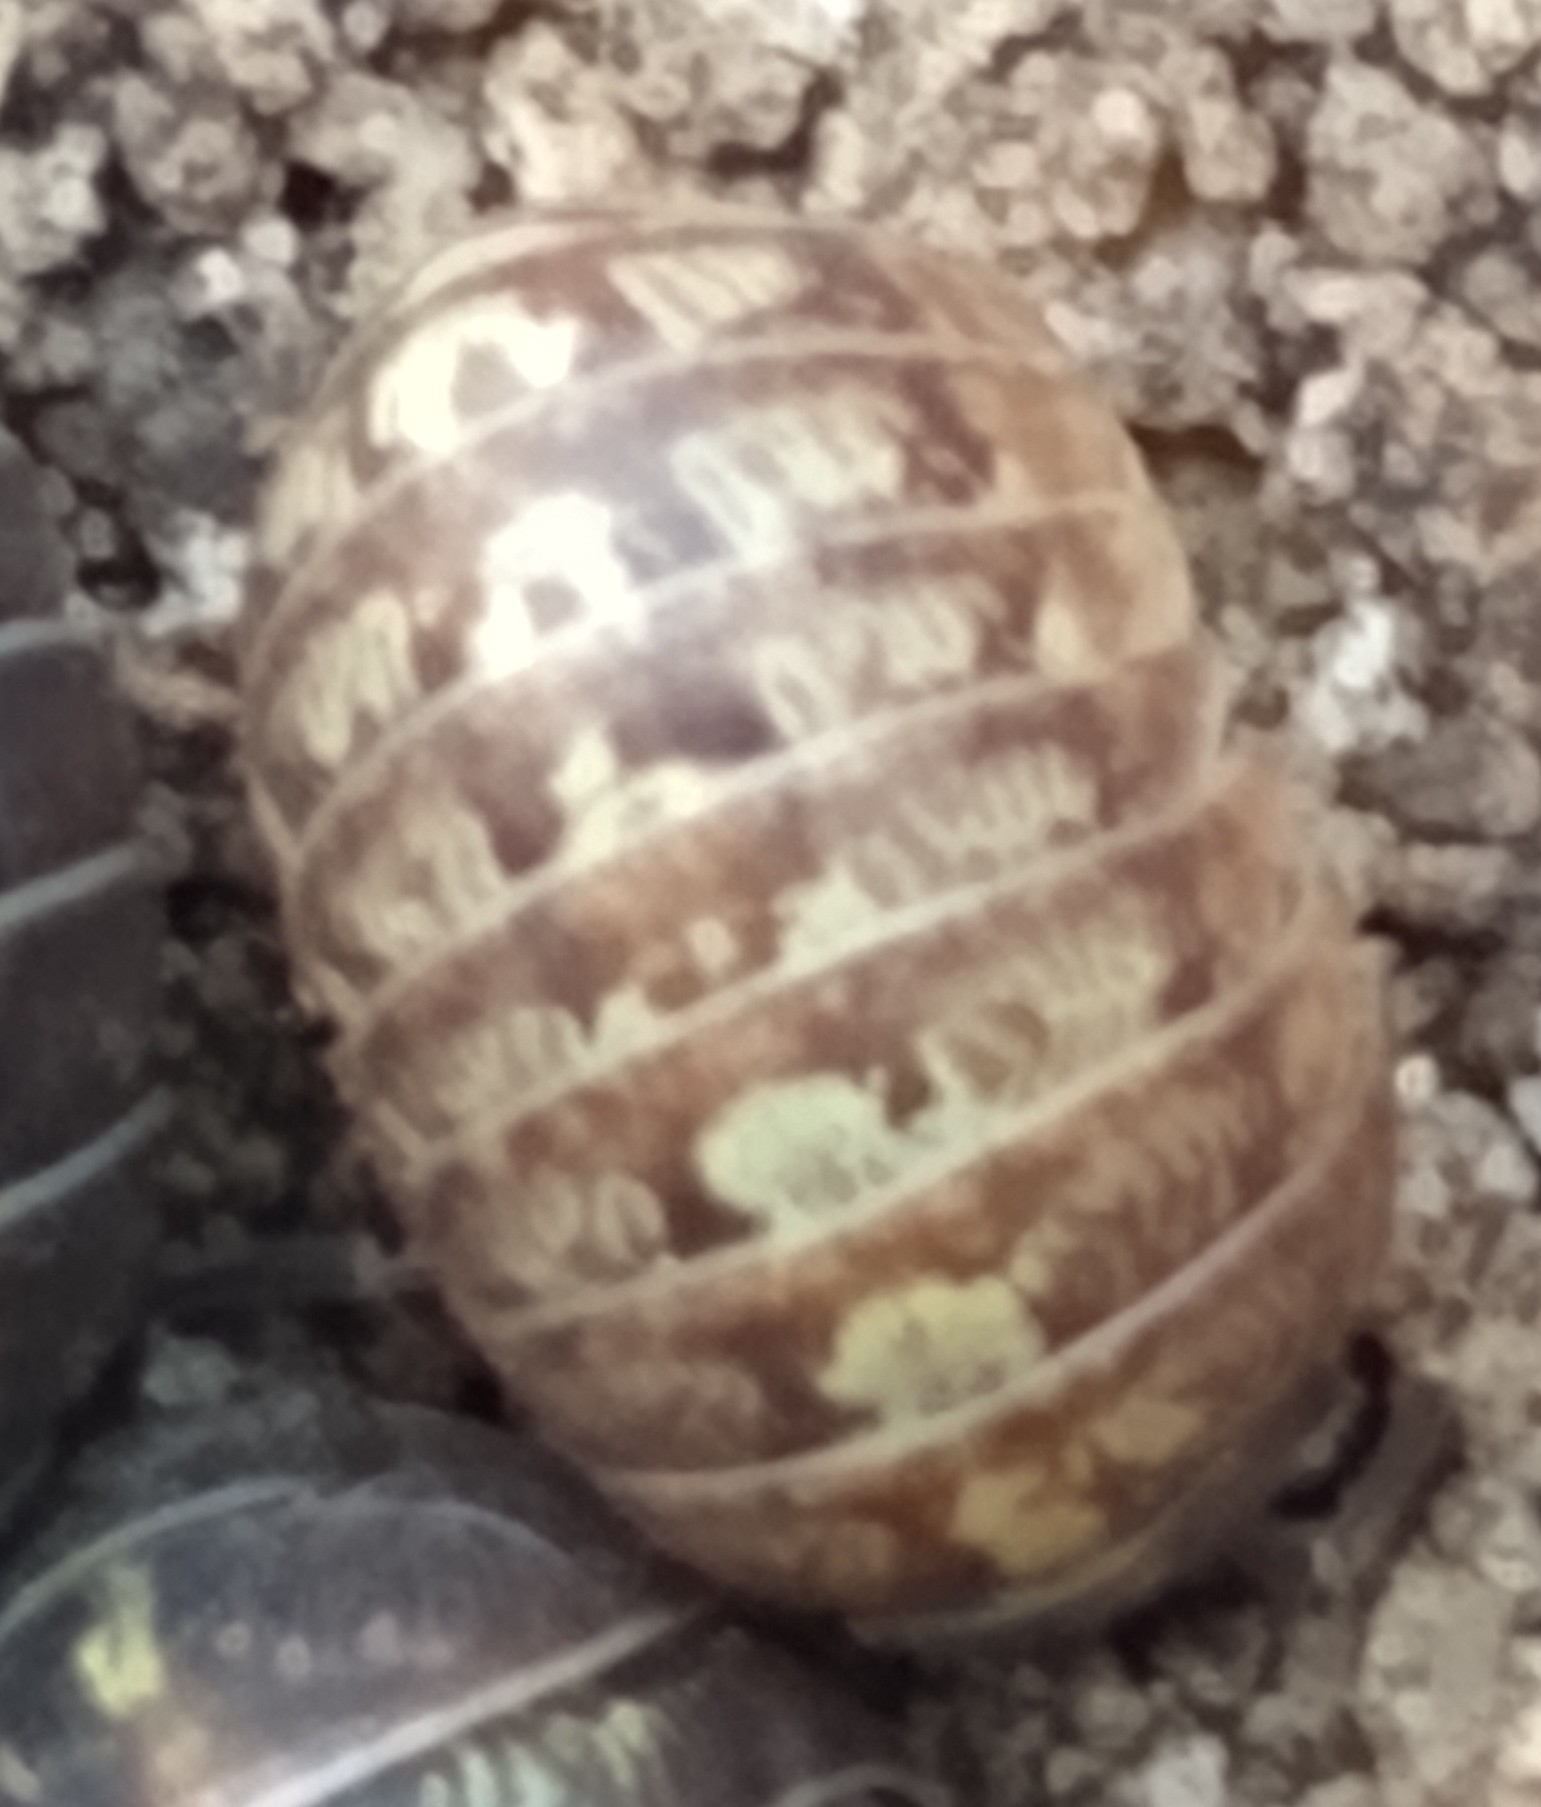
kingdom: Animalia
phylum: Arthropoda
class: Malacostraca
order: Isopoda
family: Armadillidiidae
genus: Armadillidium
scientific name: Armadillidium vulgare
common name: Common pill woodlouse
